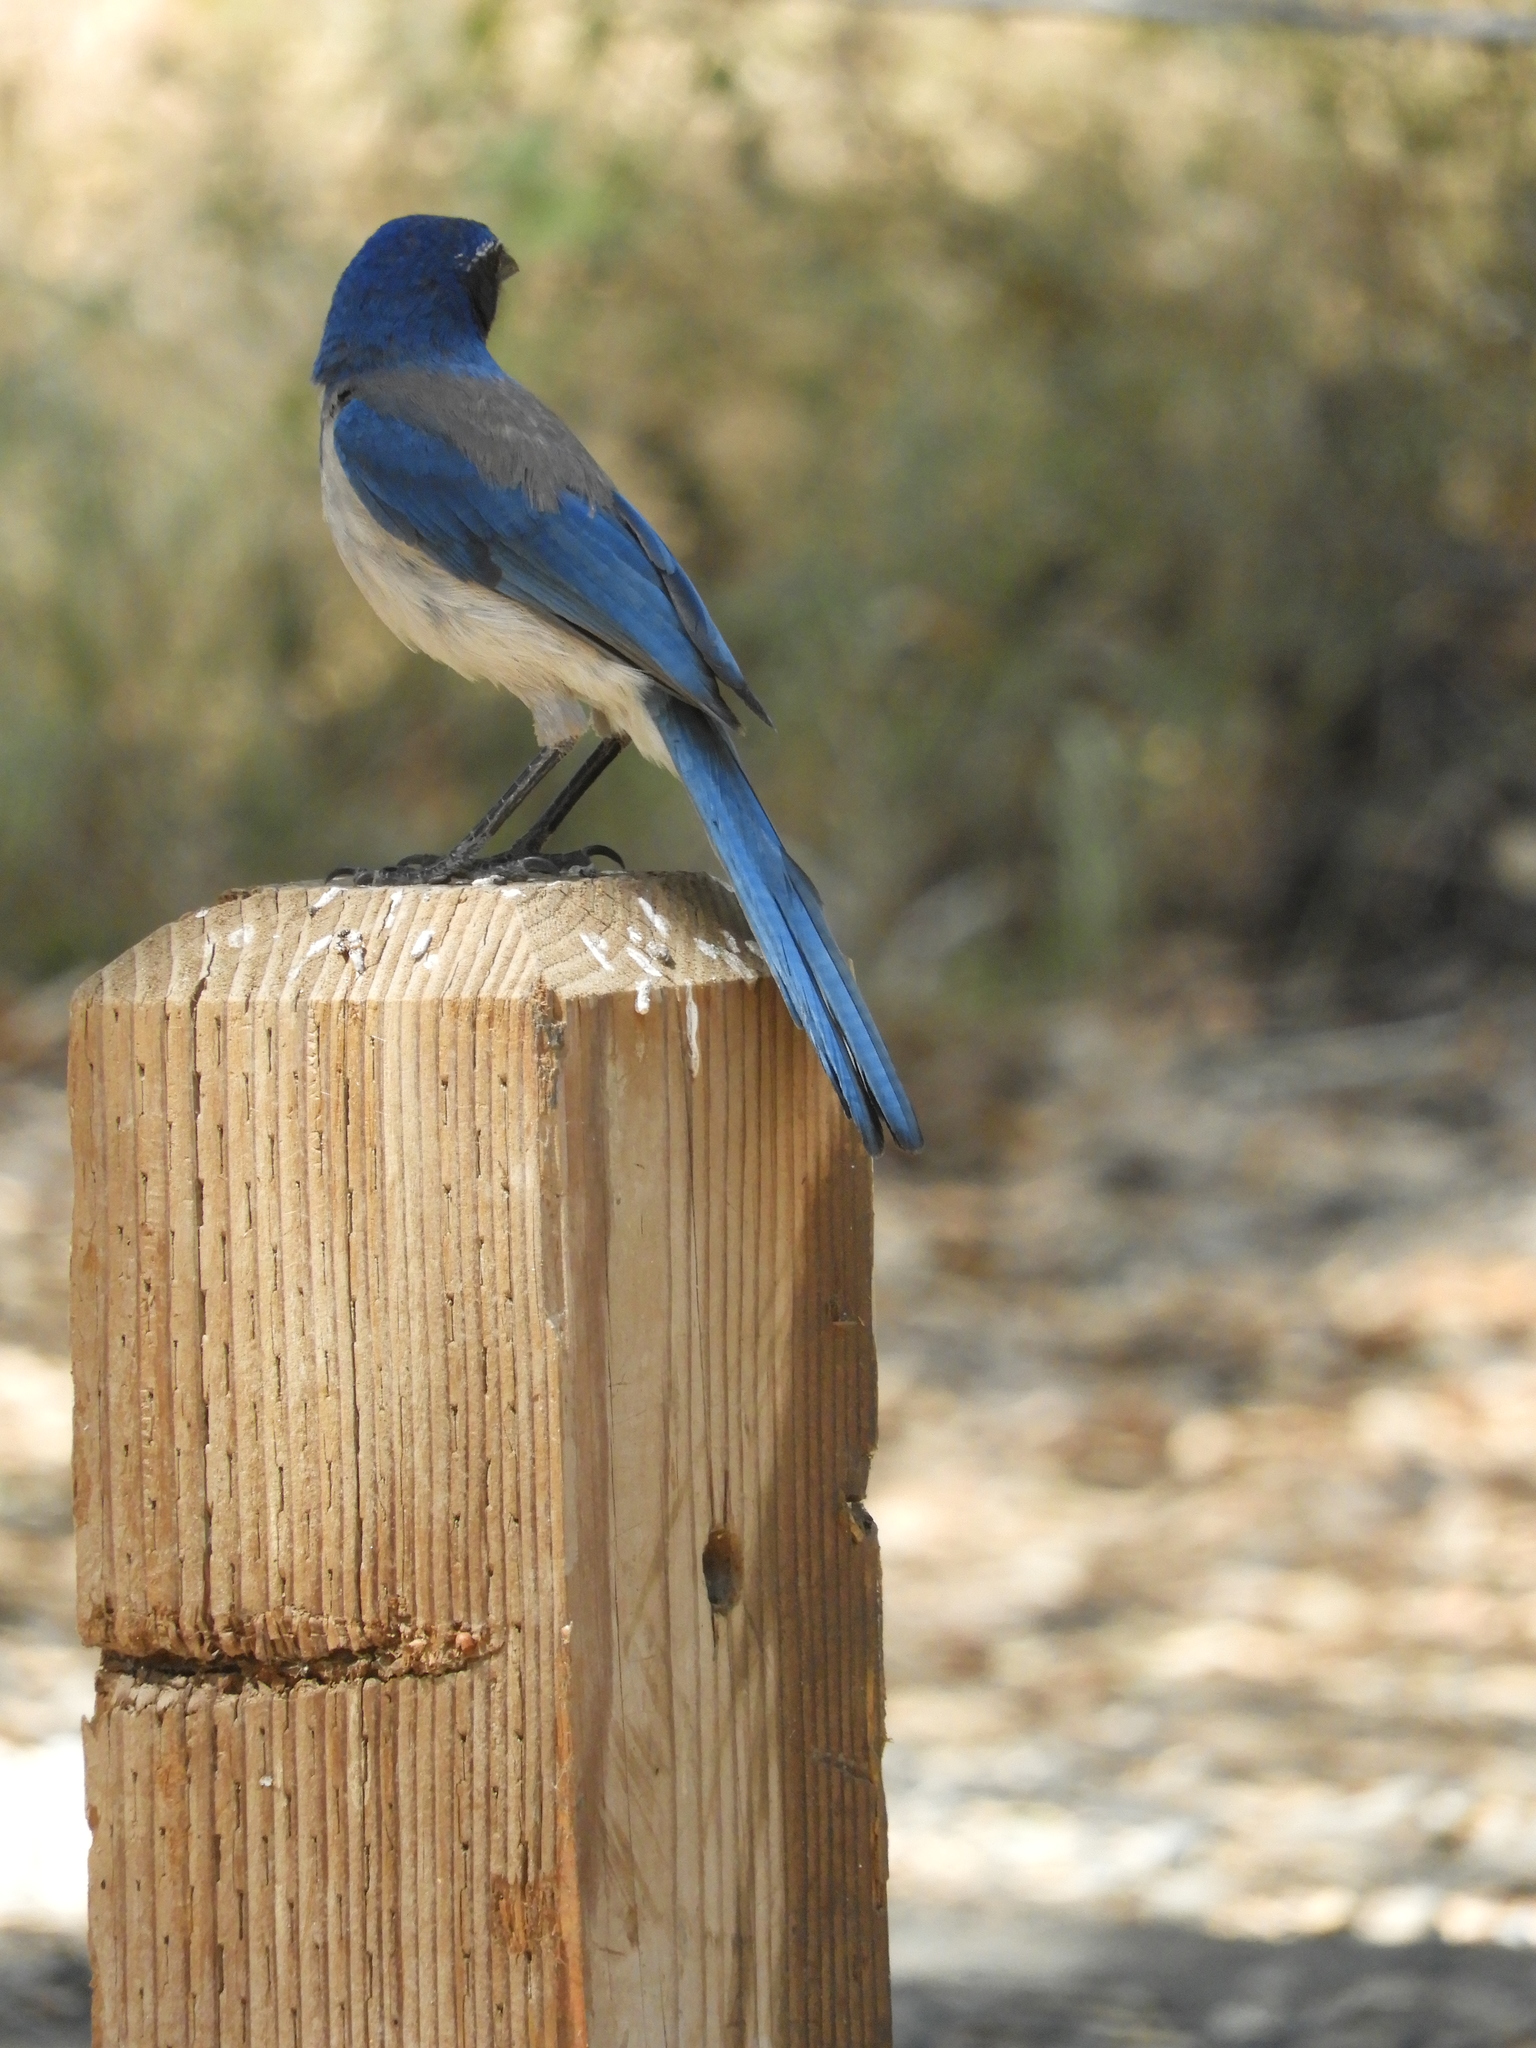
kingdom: Animalia
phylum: Chordata
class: Aves
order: Passeriformes
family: Corvidae
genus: Aphelocoma
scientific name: Aphelocoma californica
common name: California scrub-jay
